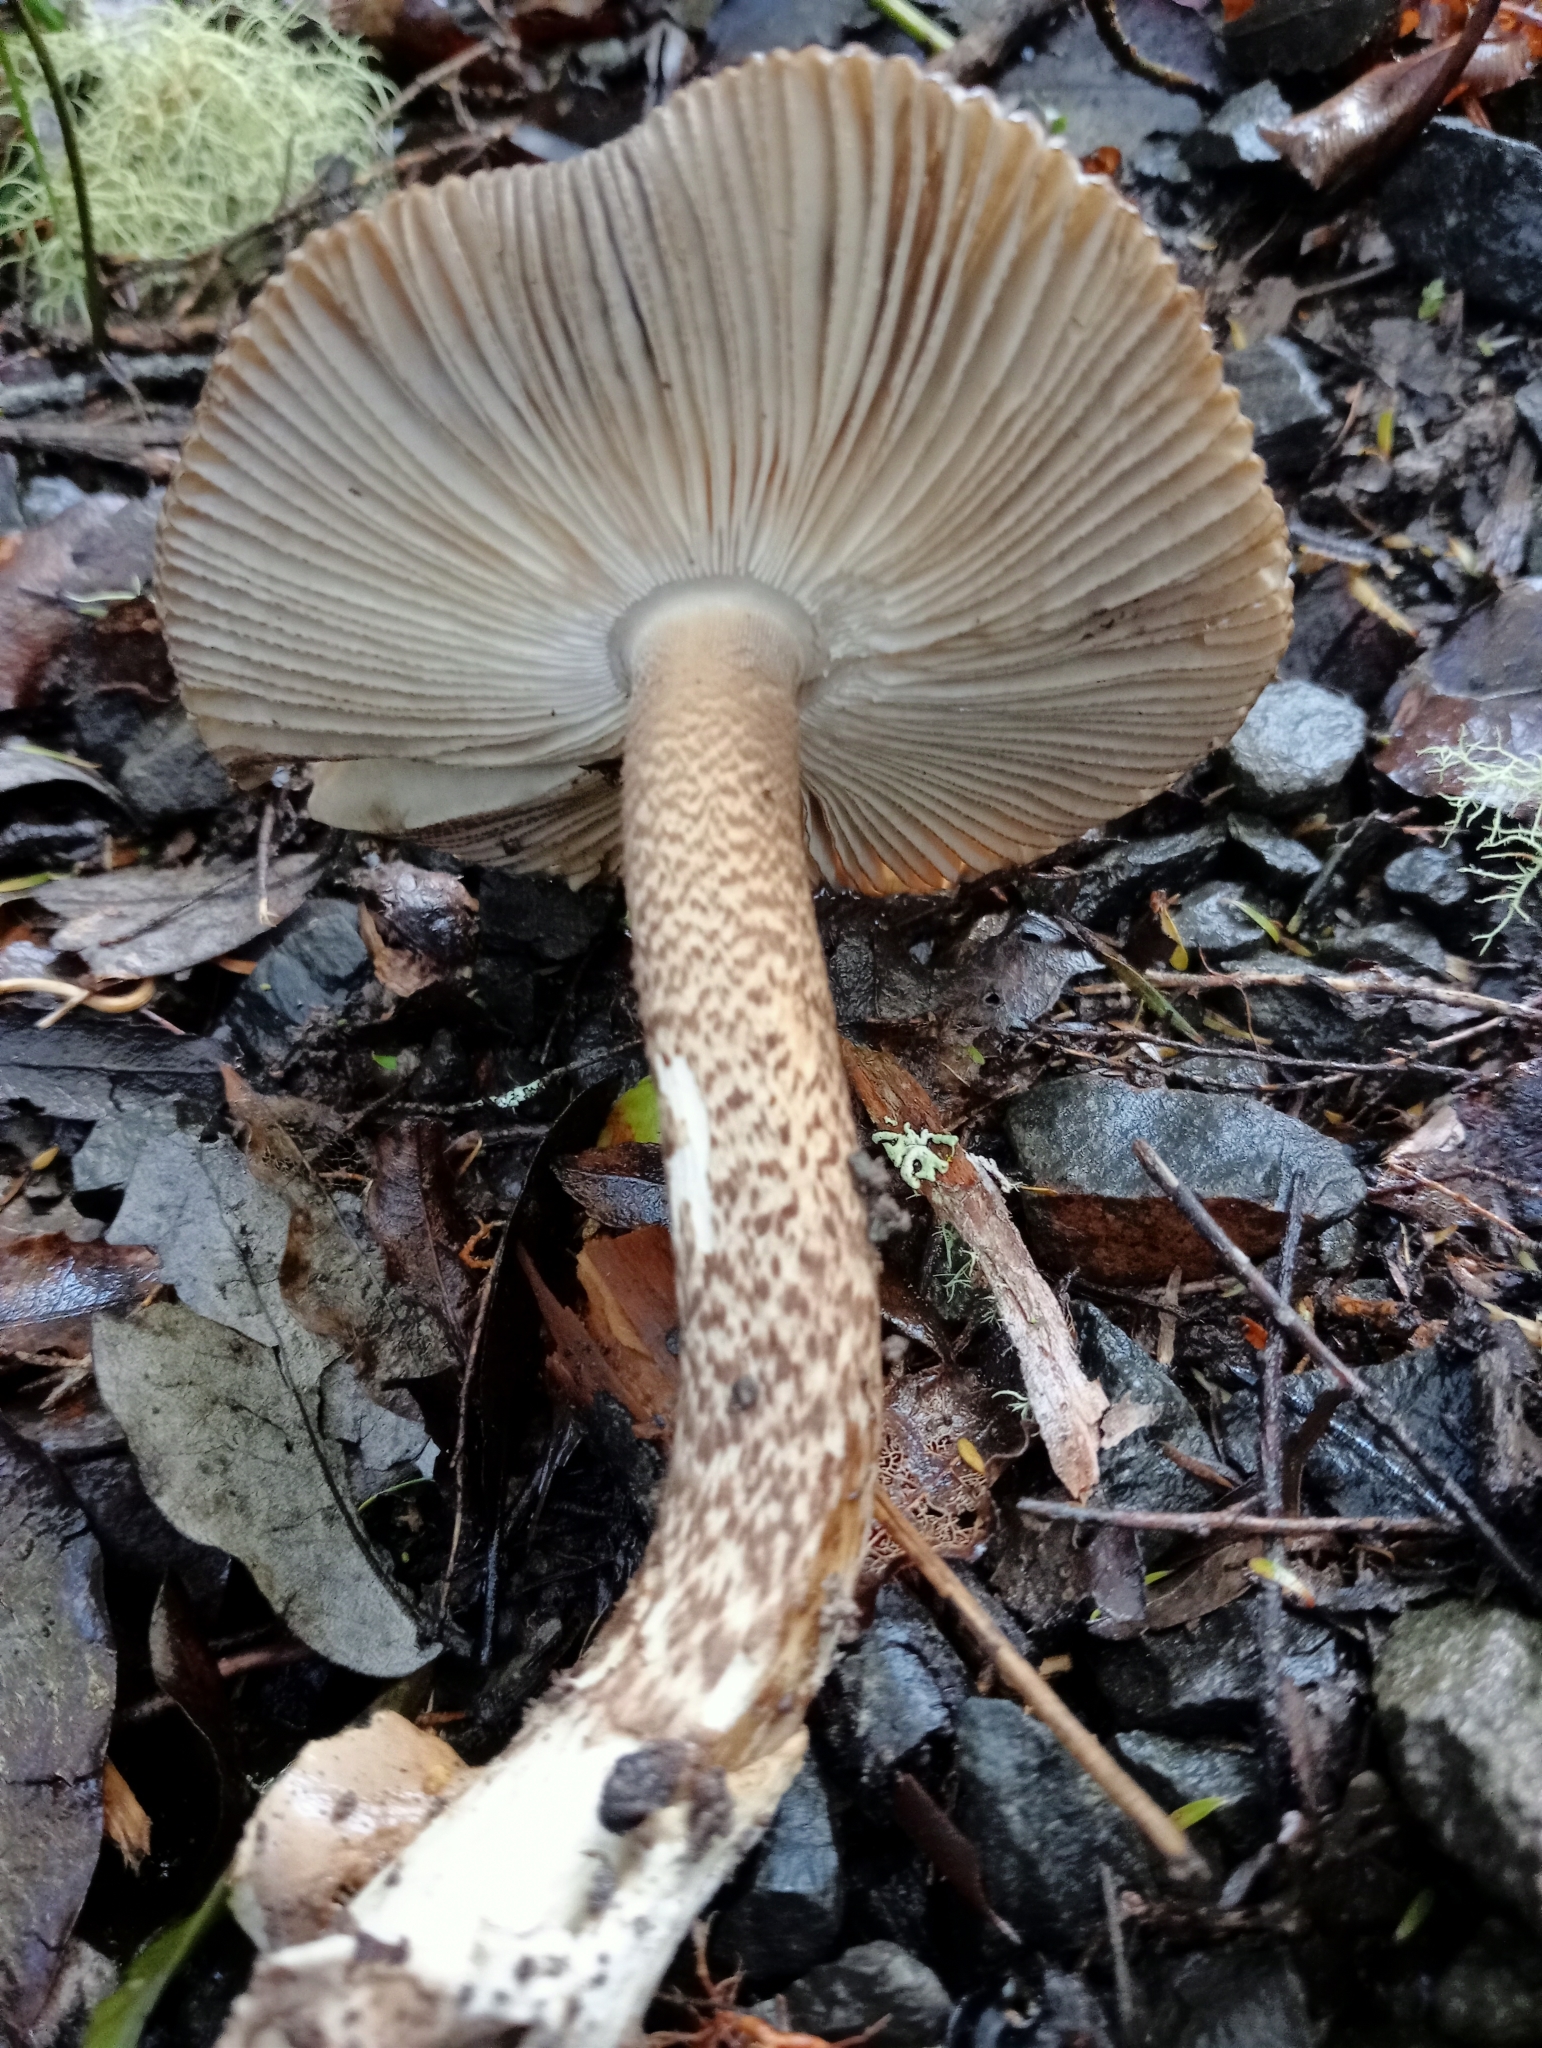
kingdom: Fungi
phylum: Basidiomycota
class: Agaricomycetes
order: Agaricales
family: Amanitaceae
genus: Amanita
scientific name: Amanita pekeoides
